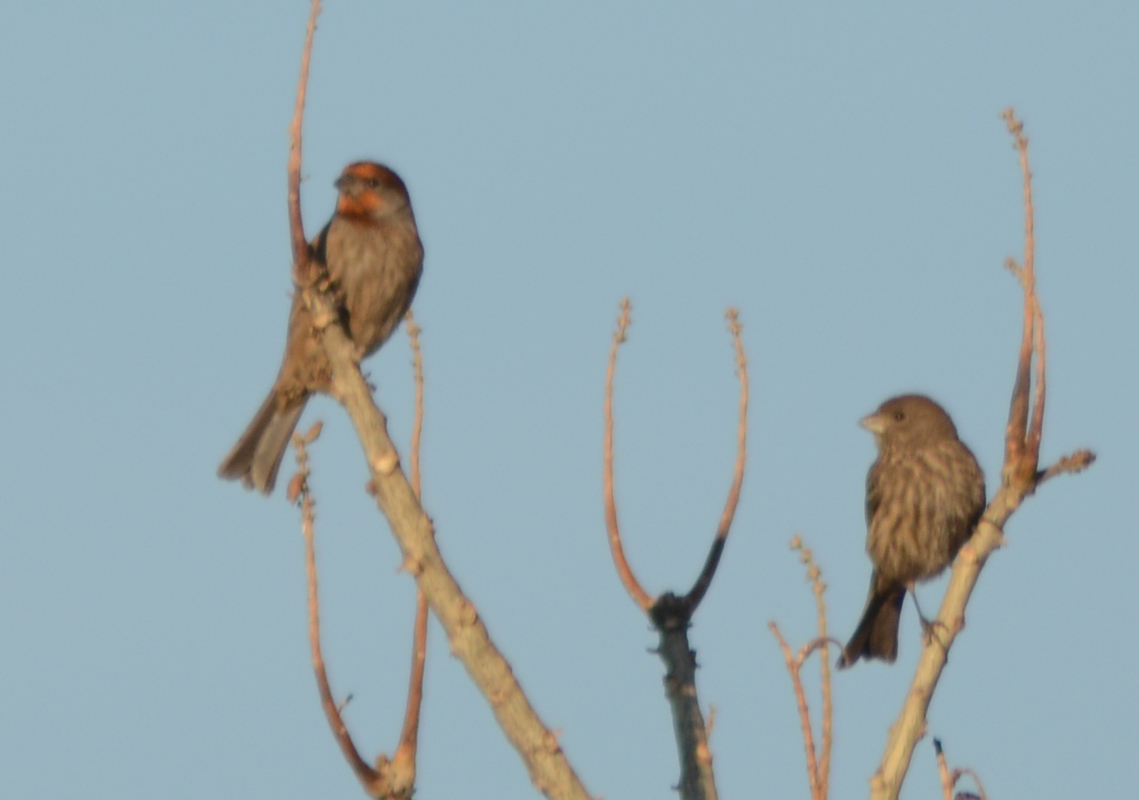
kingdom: Animalia
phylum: Chordata
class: Aves
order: Passeriformes
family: Fringillidae
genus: Haemorhous
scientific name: Haemorhous mexicanus
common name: House finch
